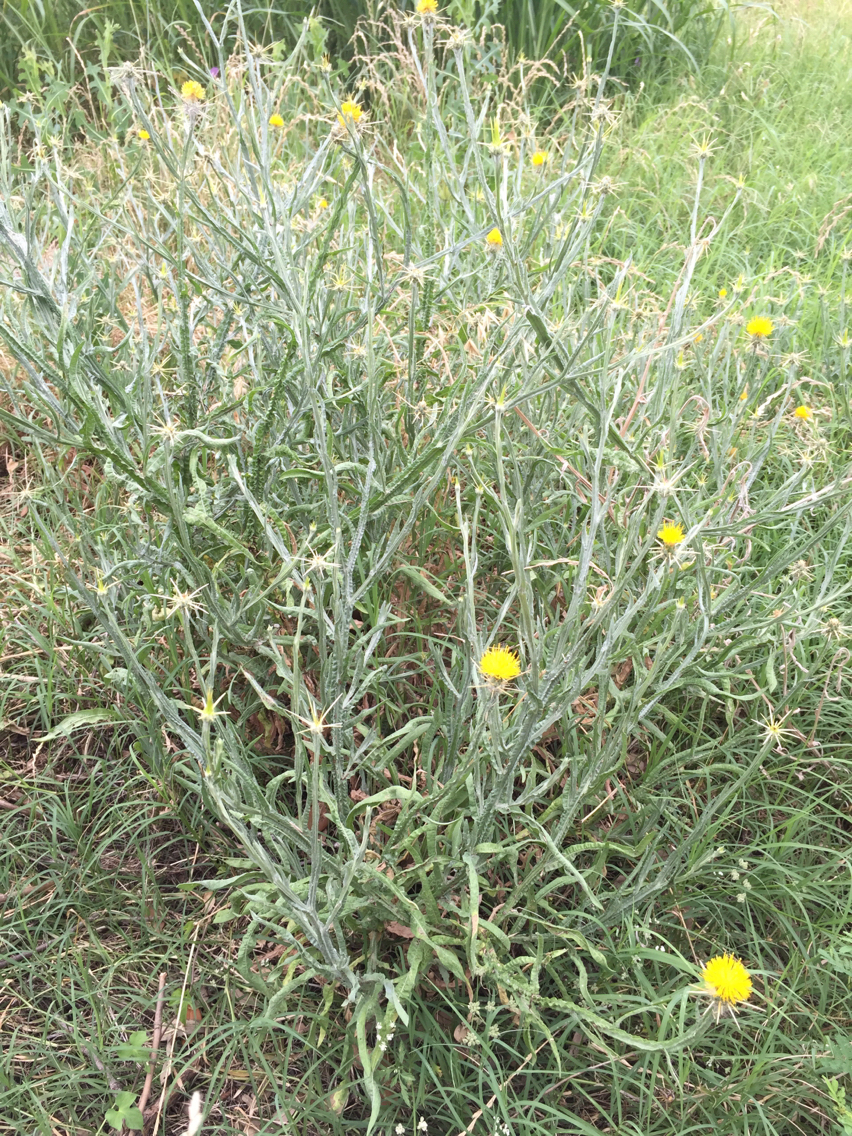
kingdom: Plantae
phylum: Tracheophyta
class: Magnoliopsida
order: Asterales
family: Asteraceae
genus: Centaurea
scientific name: Centaurea solstitialis
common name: Yellow star-thistle
